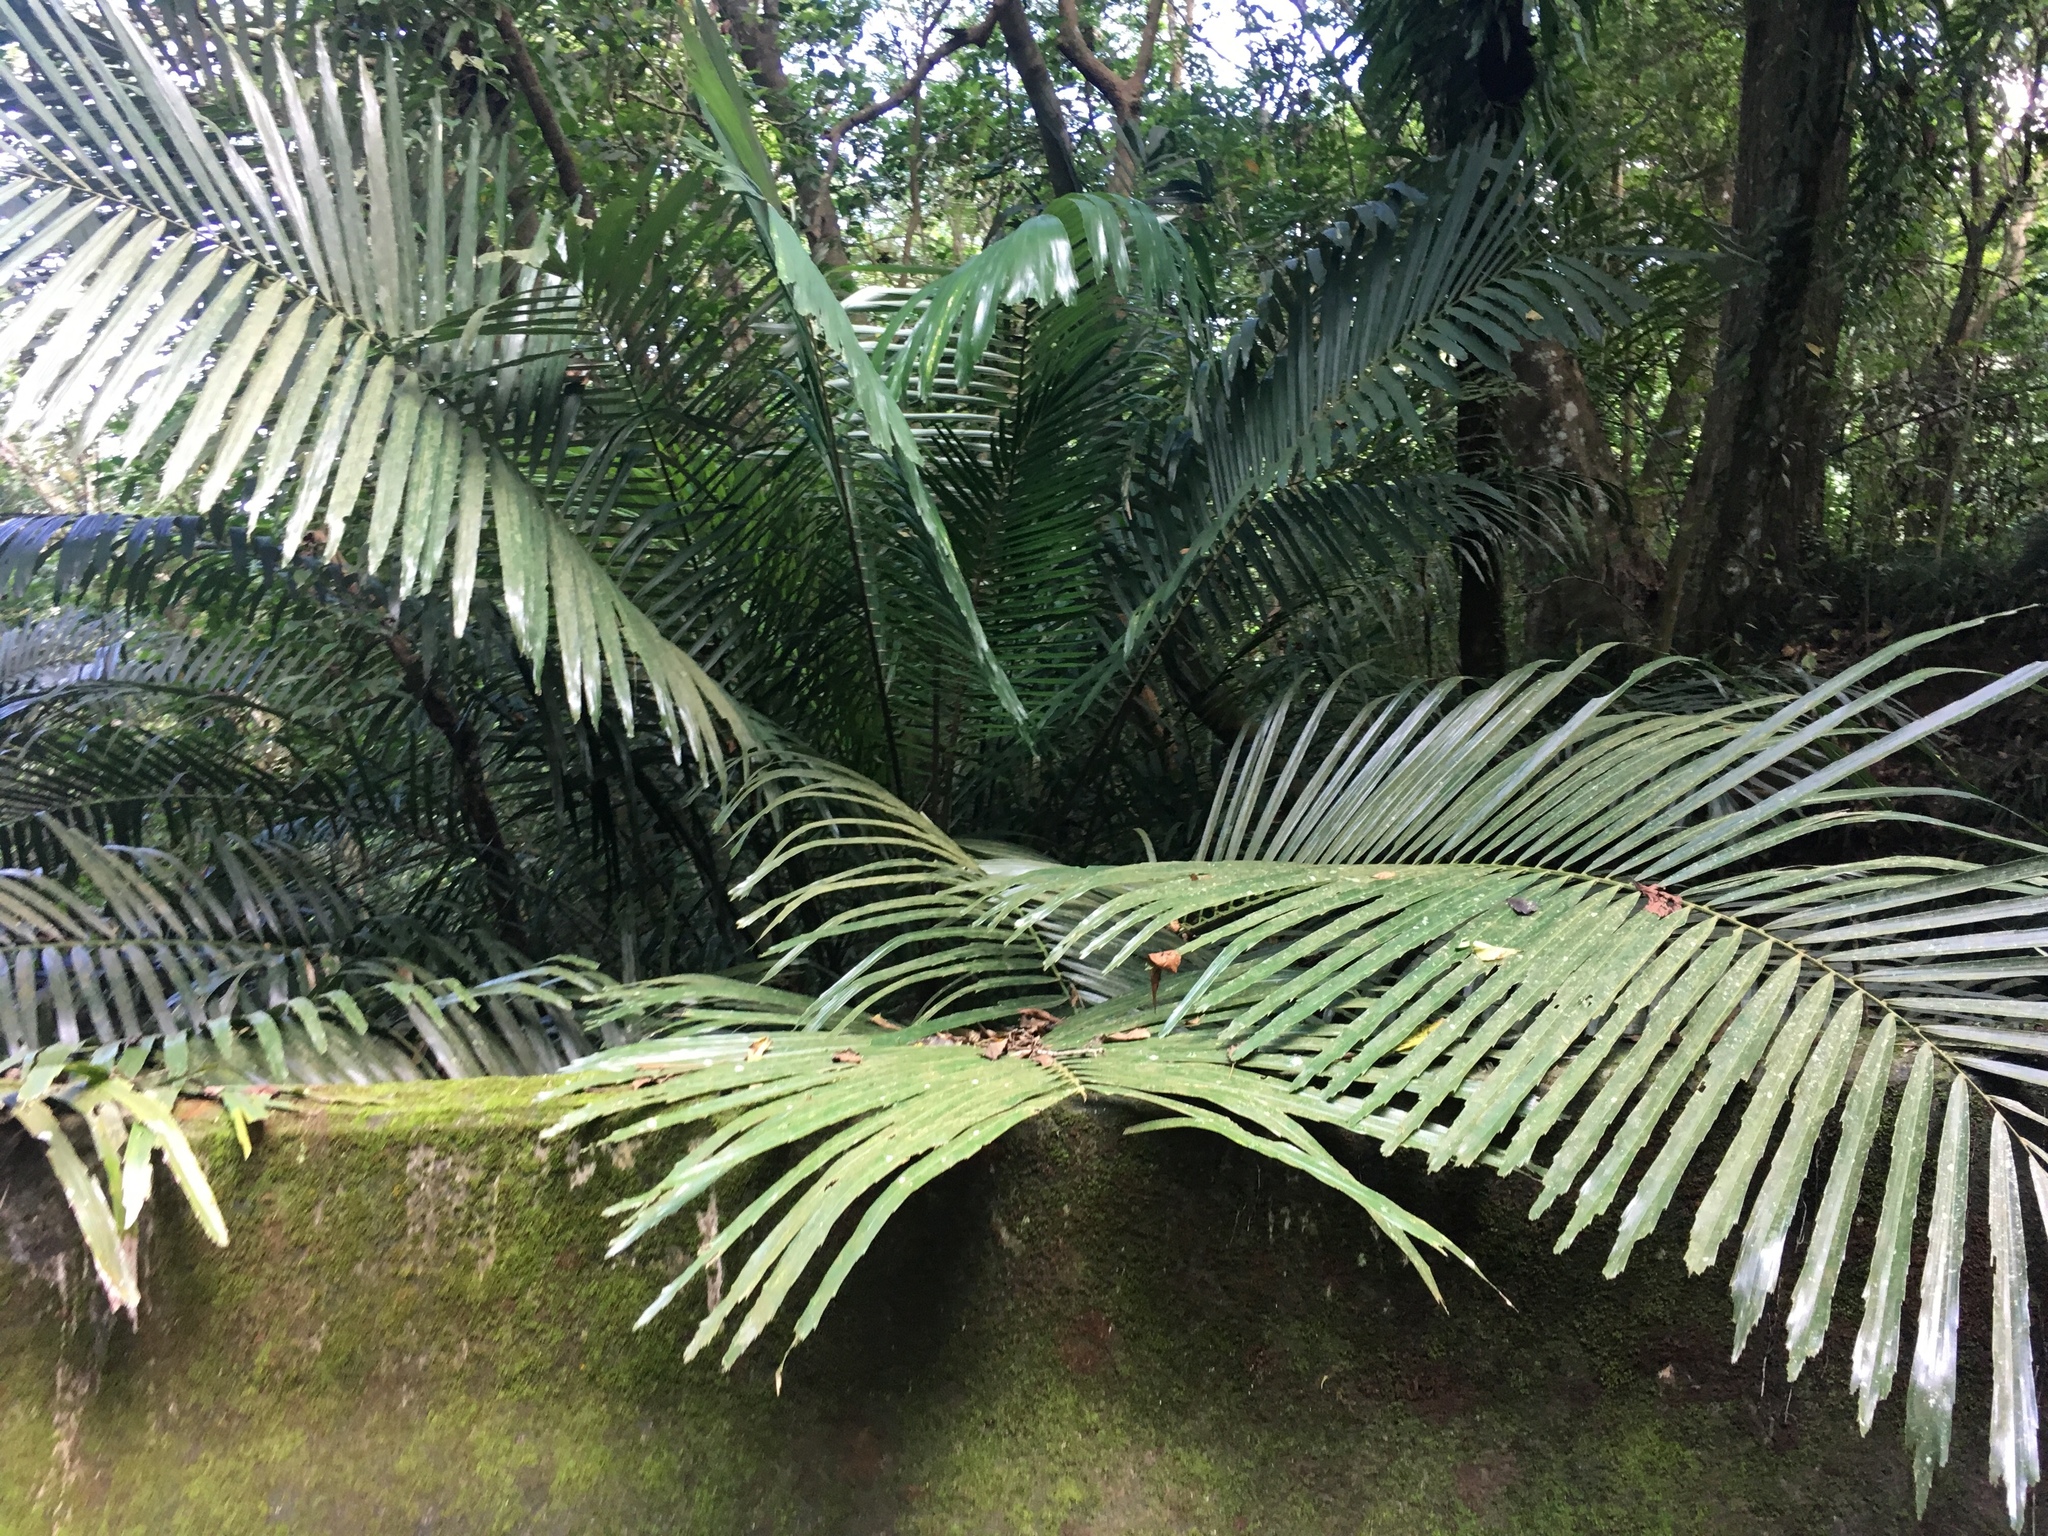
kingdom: Plantae
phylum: Tracheophyta
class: Liliopsida
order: Arecales
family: Arecaceae
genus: Arenga
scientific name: Arenga engleri
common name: Formosan sugar palm
